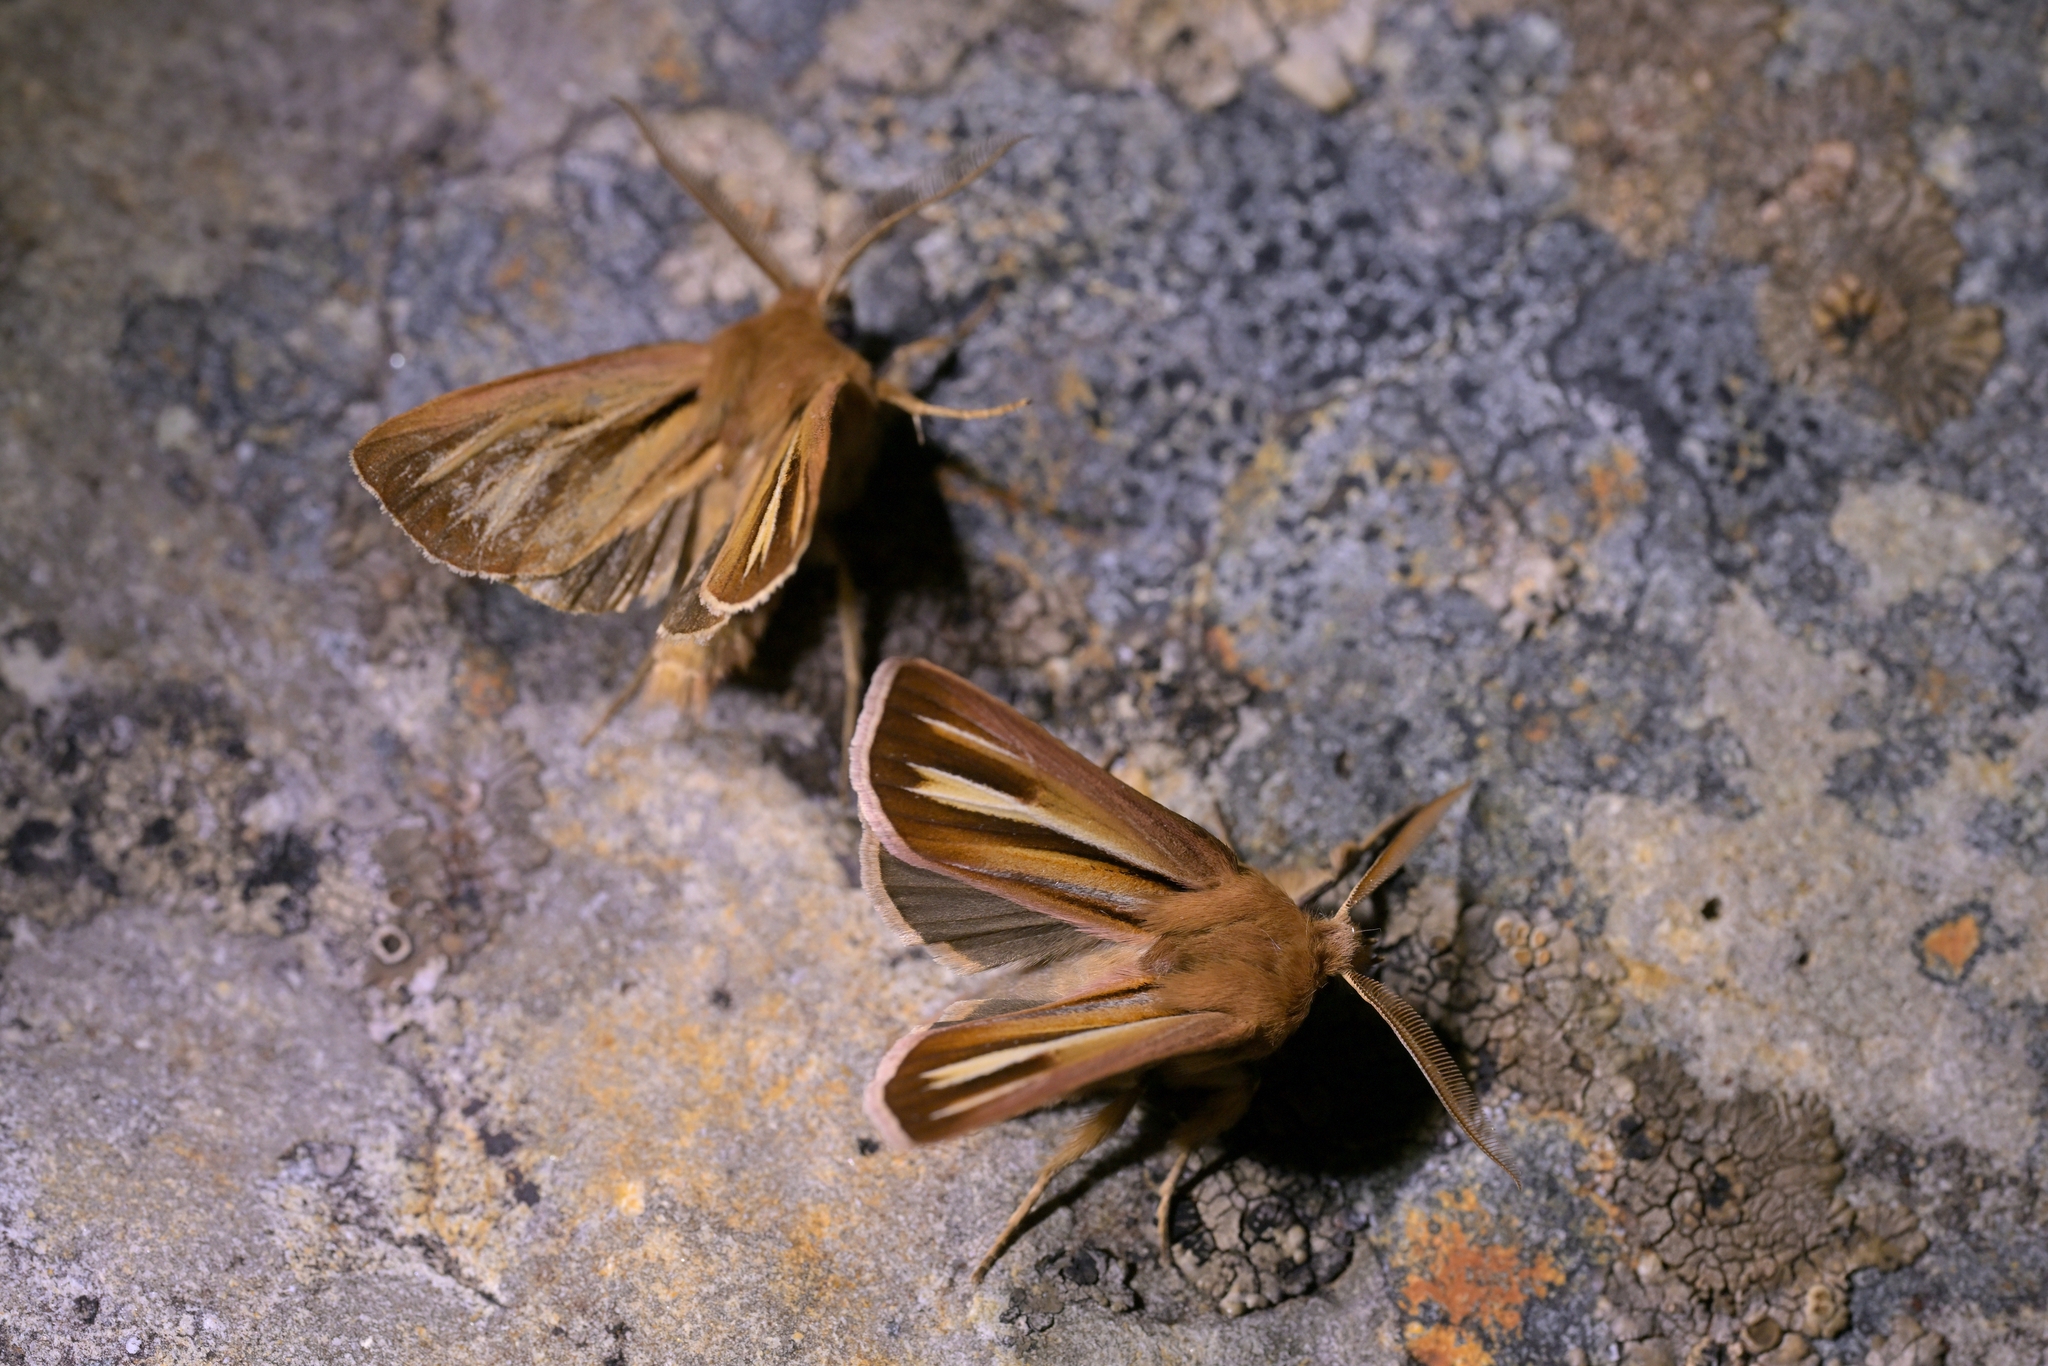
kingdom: Animalia
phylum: Arthropoda
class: Insecta
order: Lepidoptera
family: Noctuidae
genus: Ichneutica
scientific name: Ichneutica caraunias
